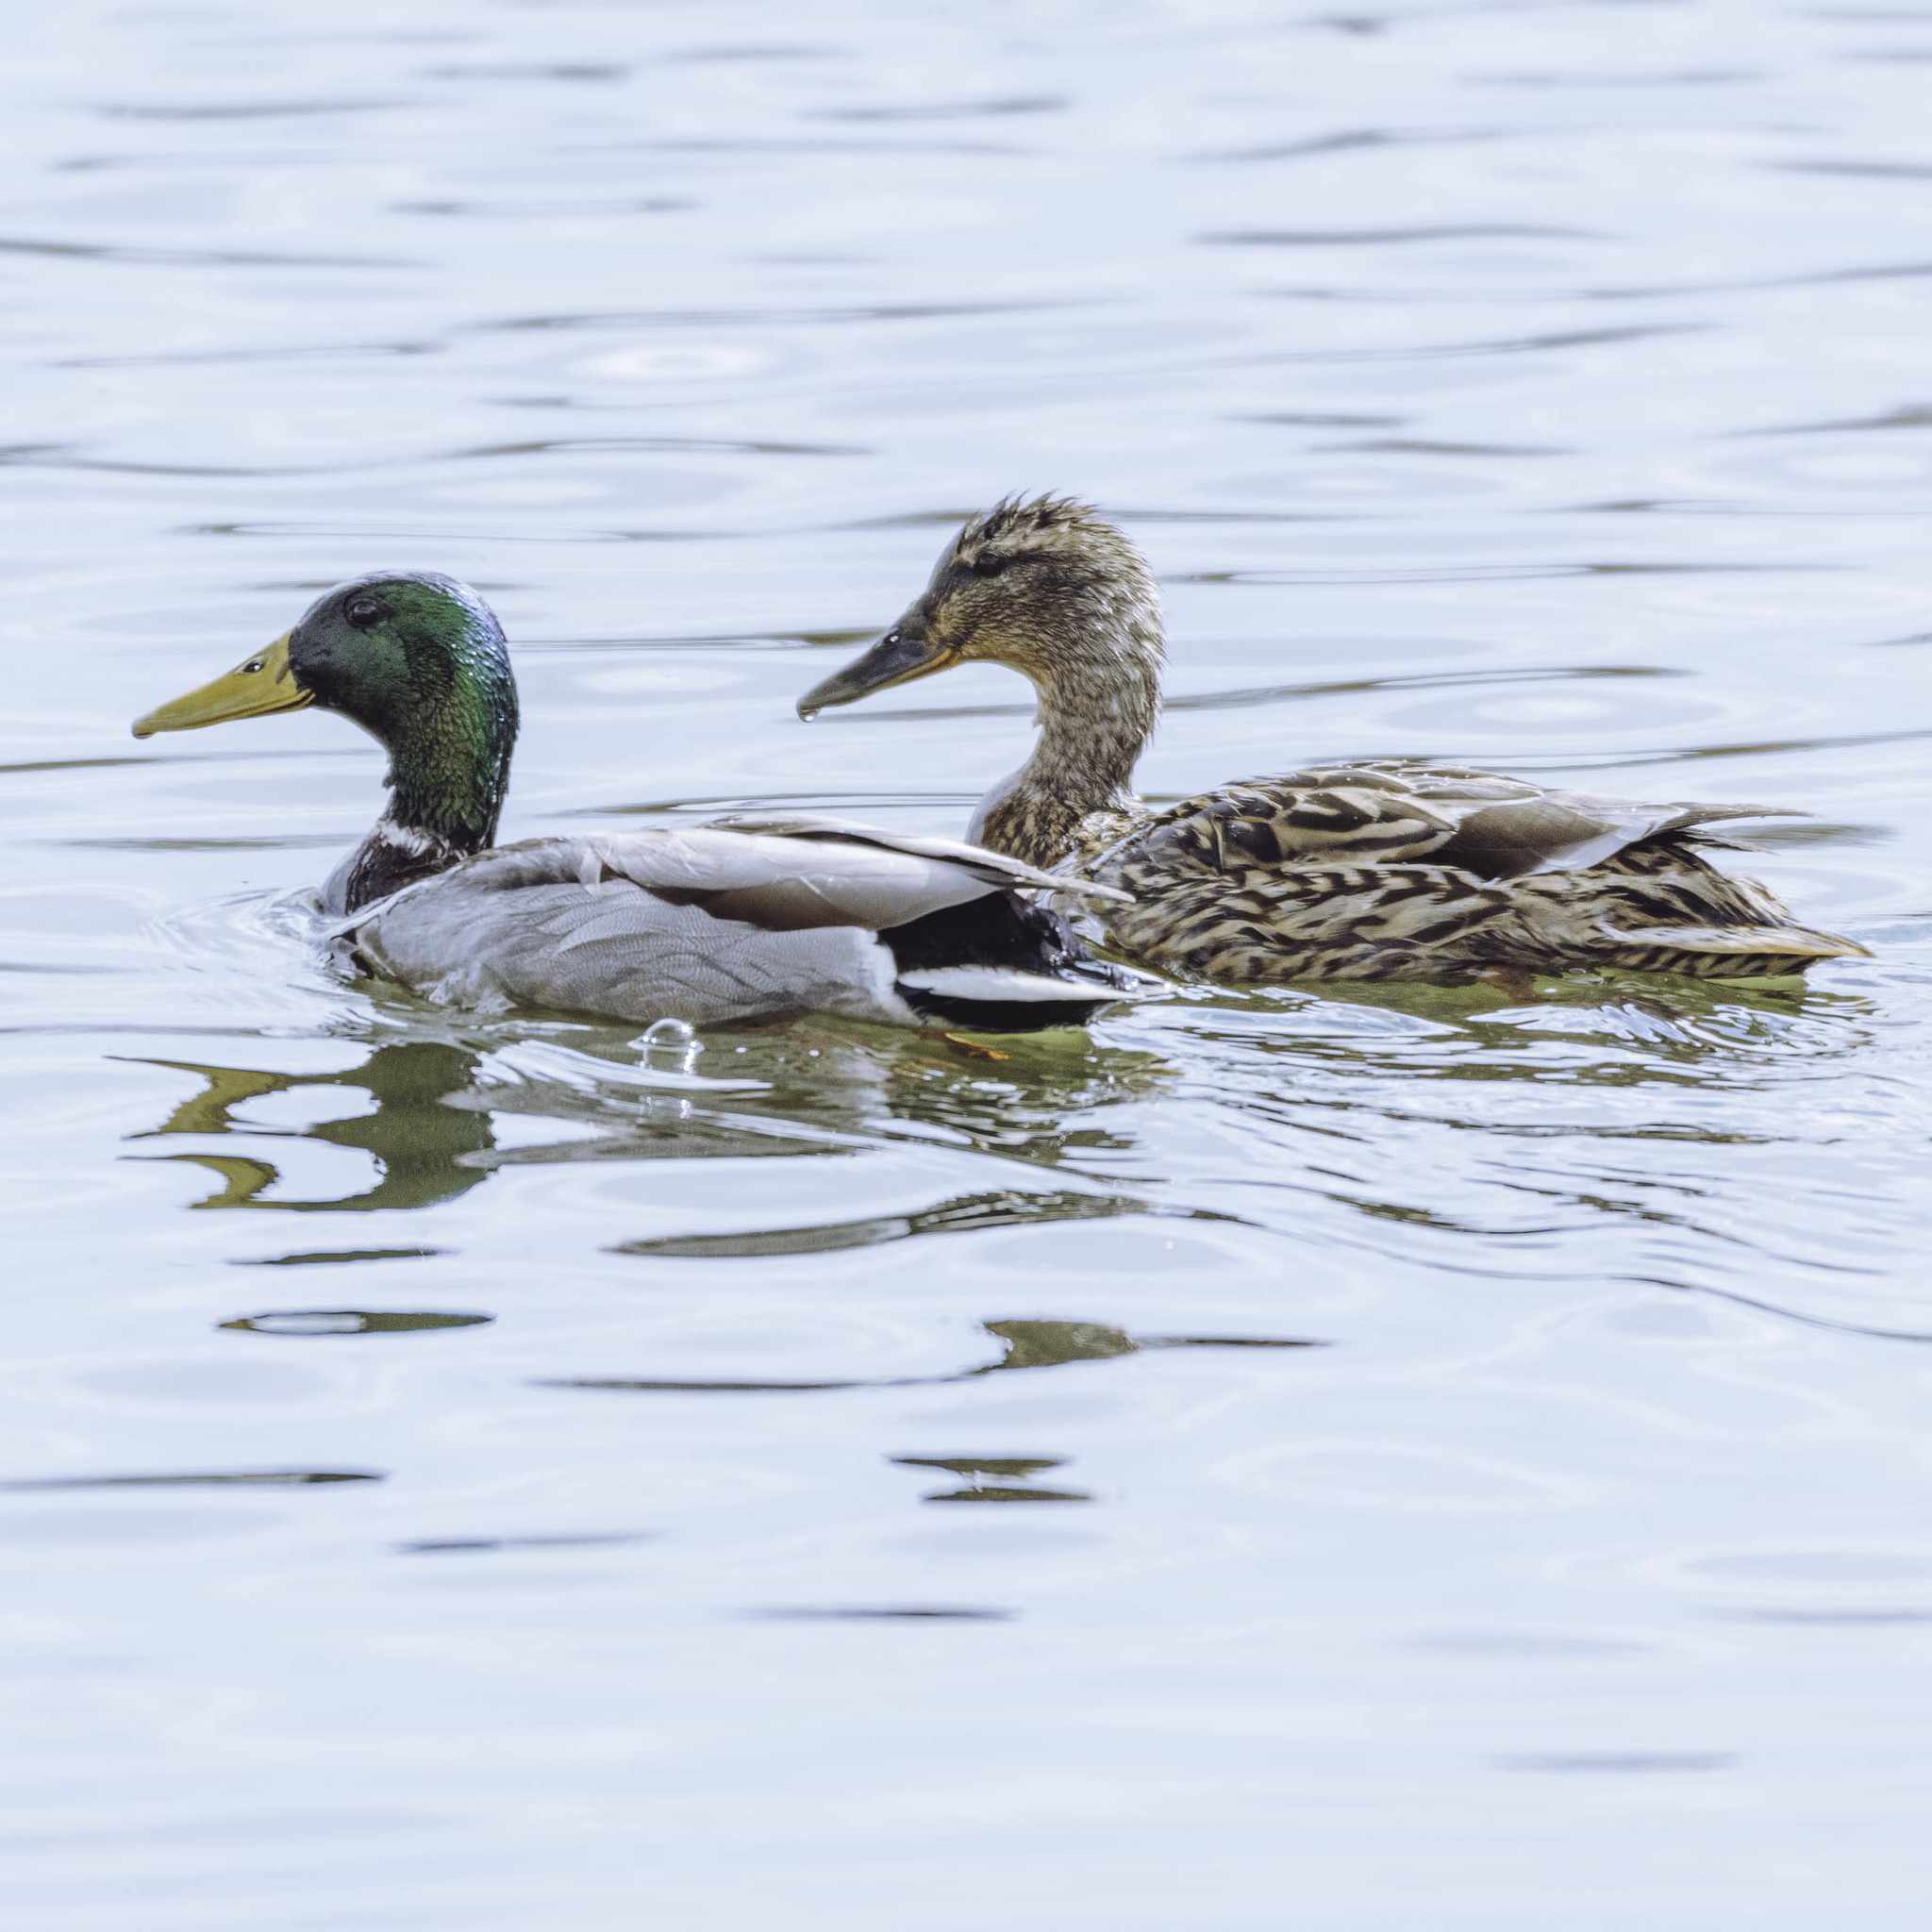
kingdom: Animalia
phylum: Chordata
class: Aves
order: Anseriformes
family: Anatidae
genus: Anas
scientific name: Anas platyrhynchos
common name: Mallard
